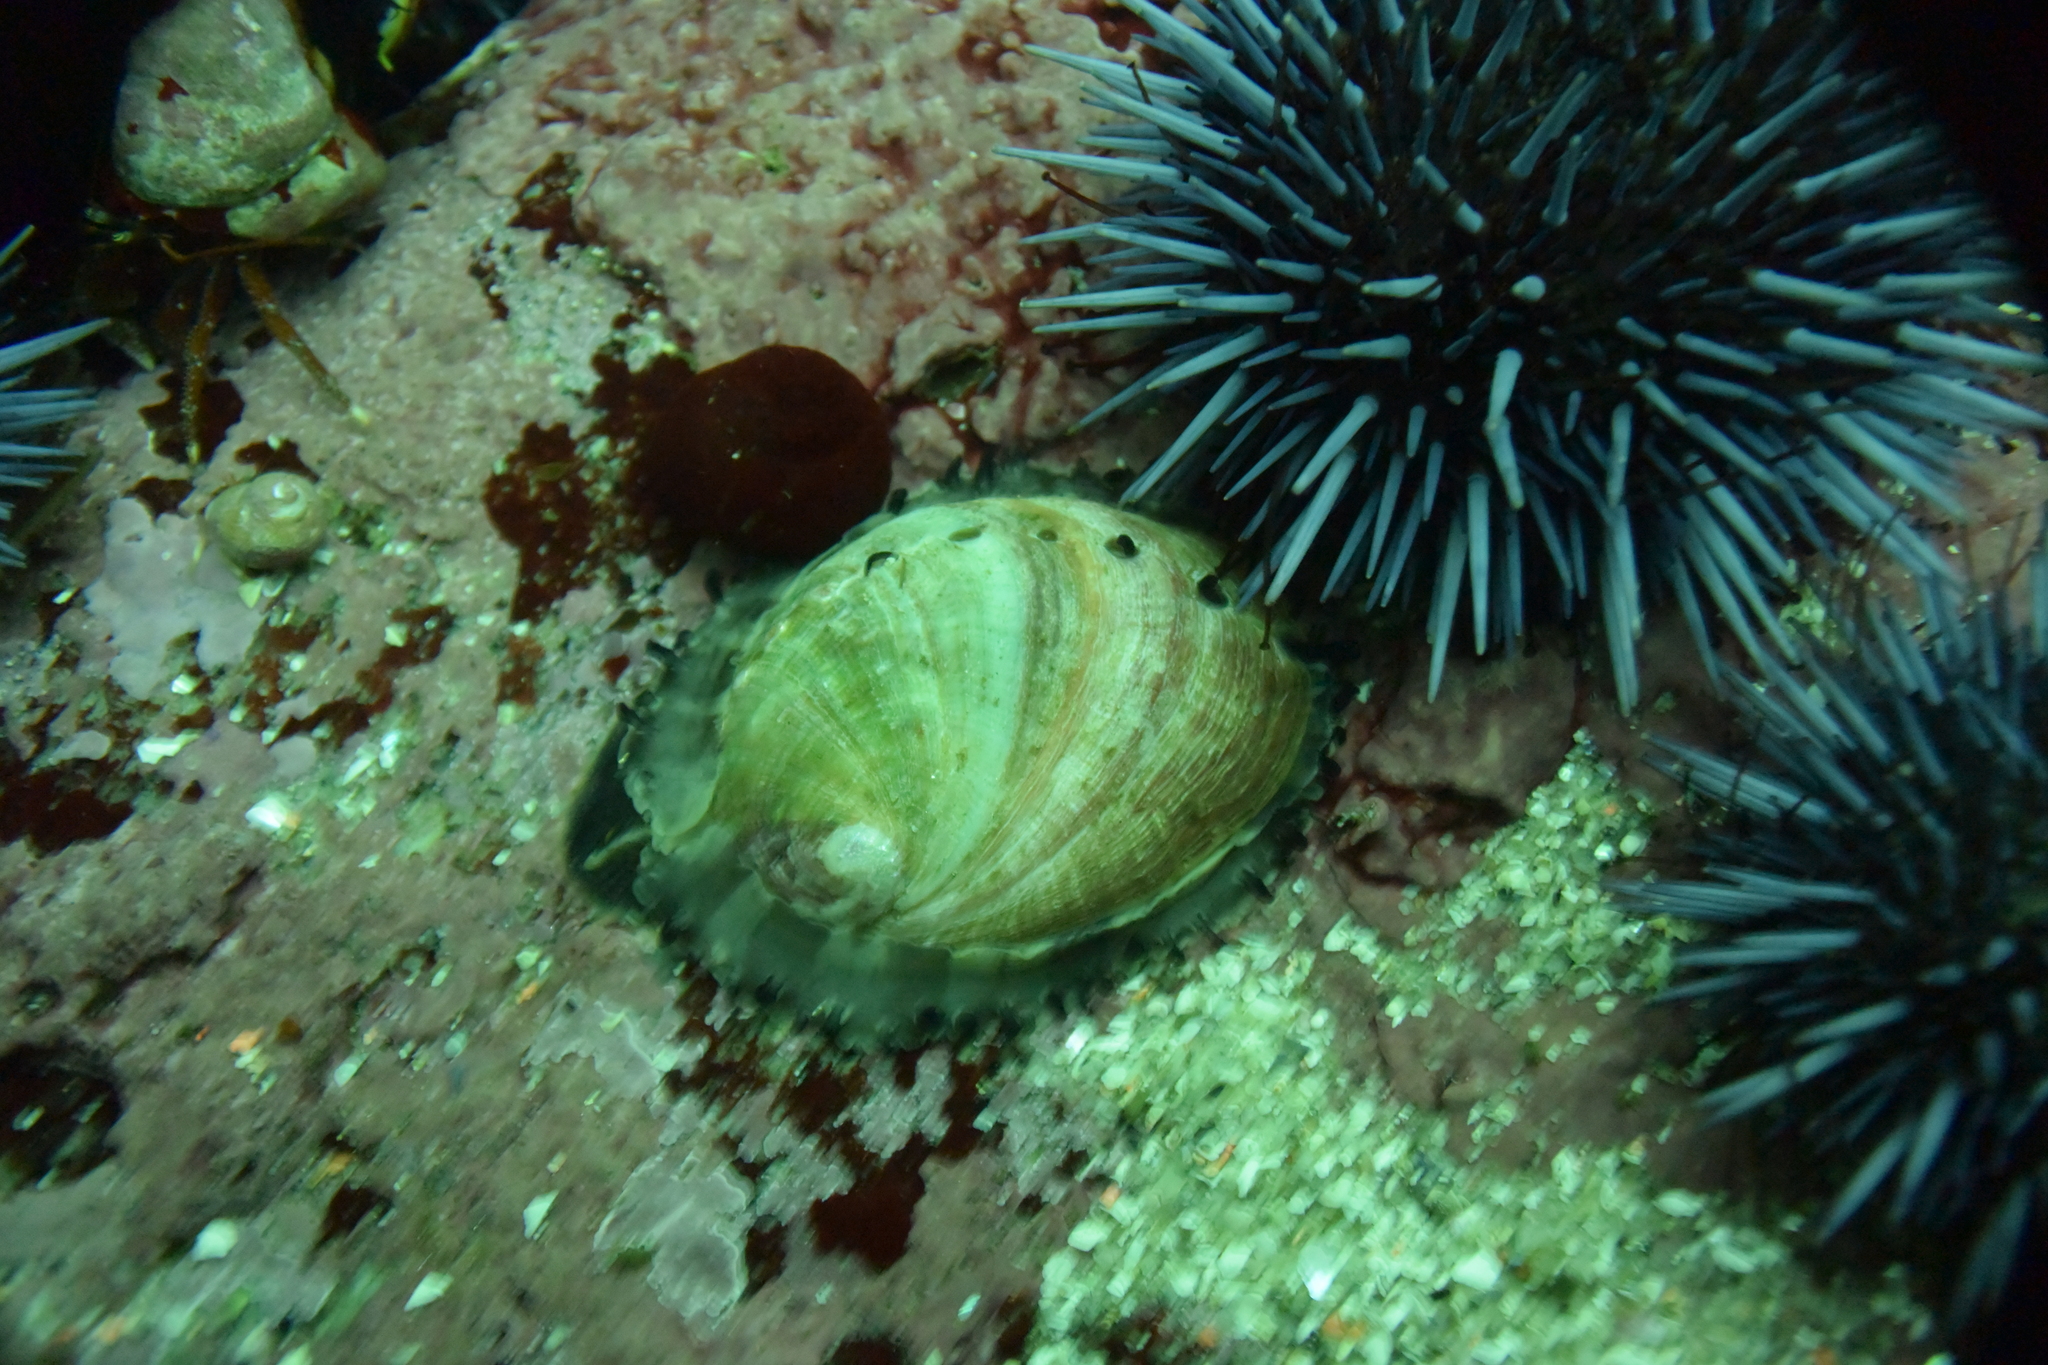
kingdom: Animalia
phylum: Mollusca
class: Gastropoda
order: Lepetellida
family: Haliotidae
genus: Haliotis
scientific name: Haliotis rufescens
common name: Red abalone
